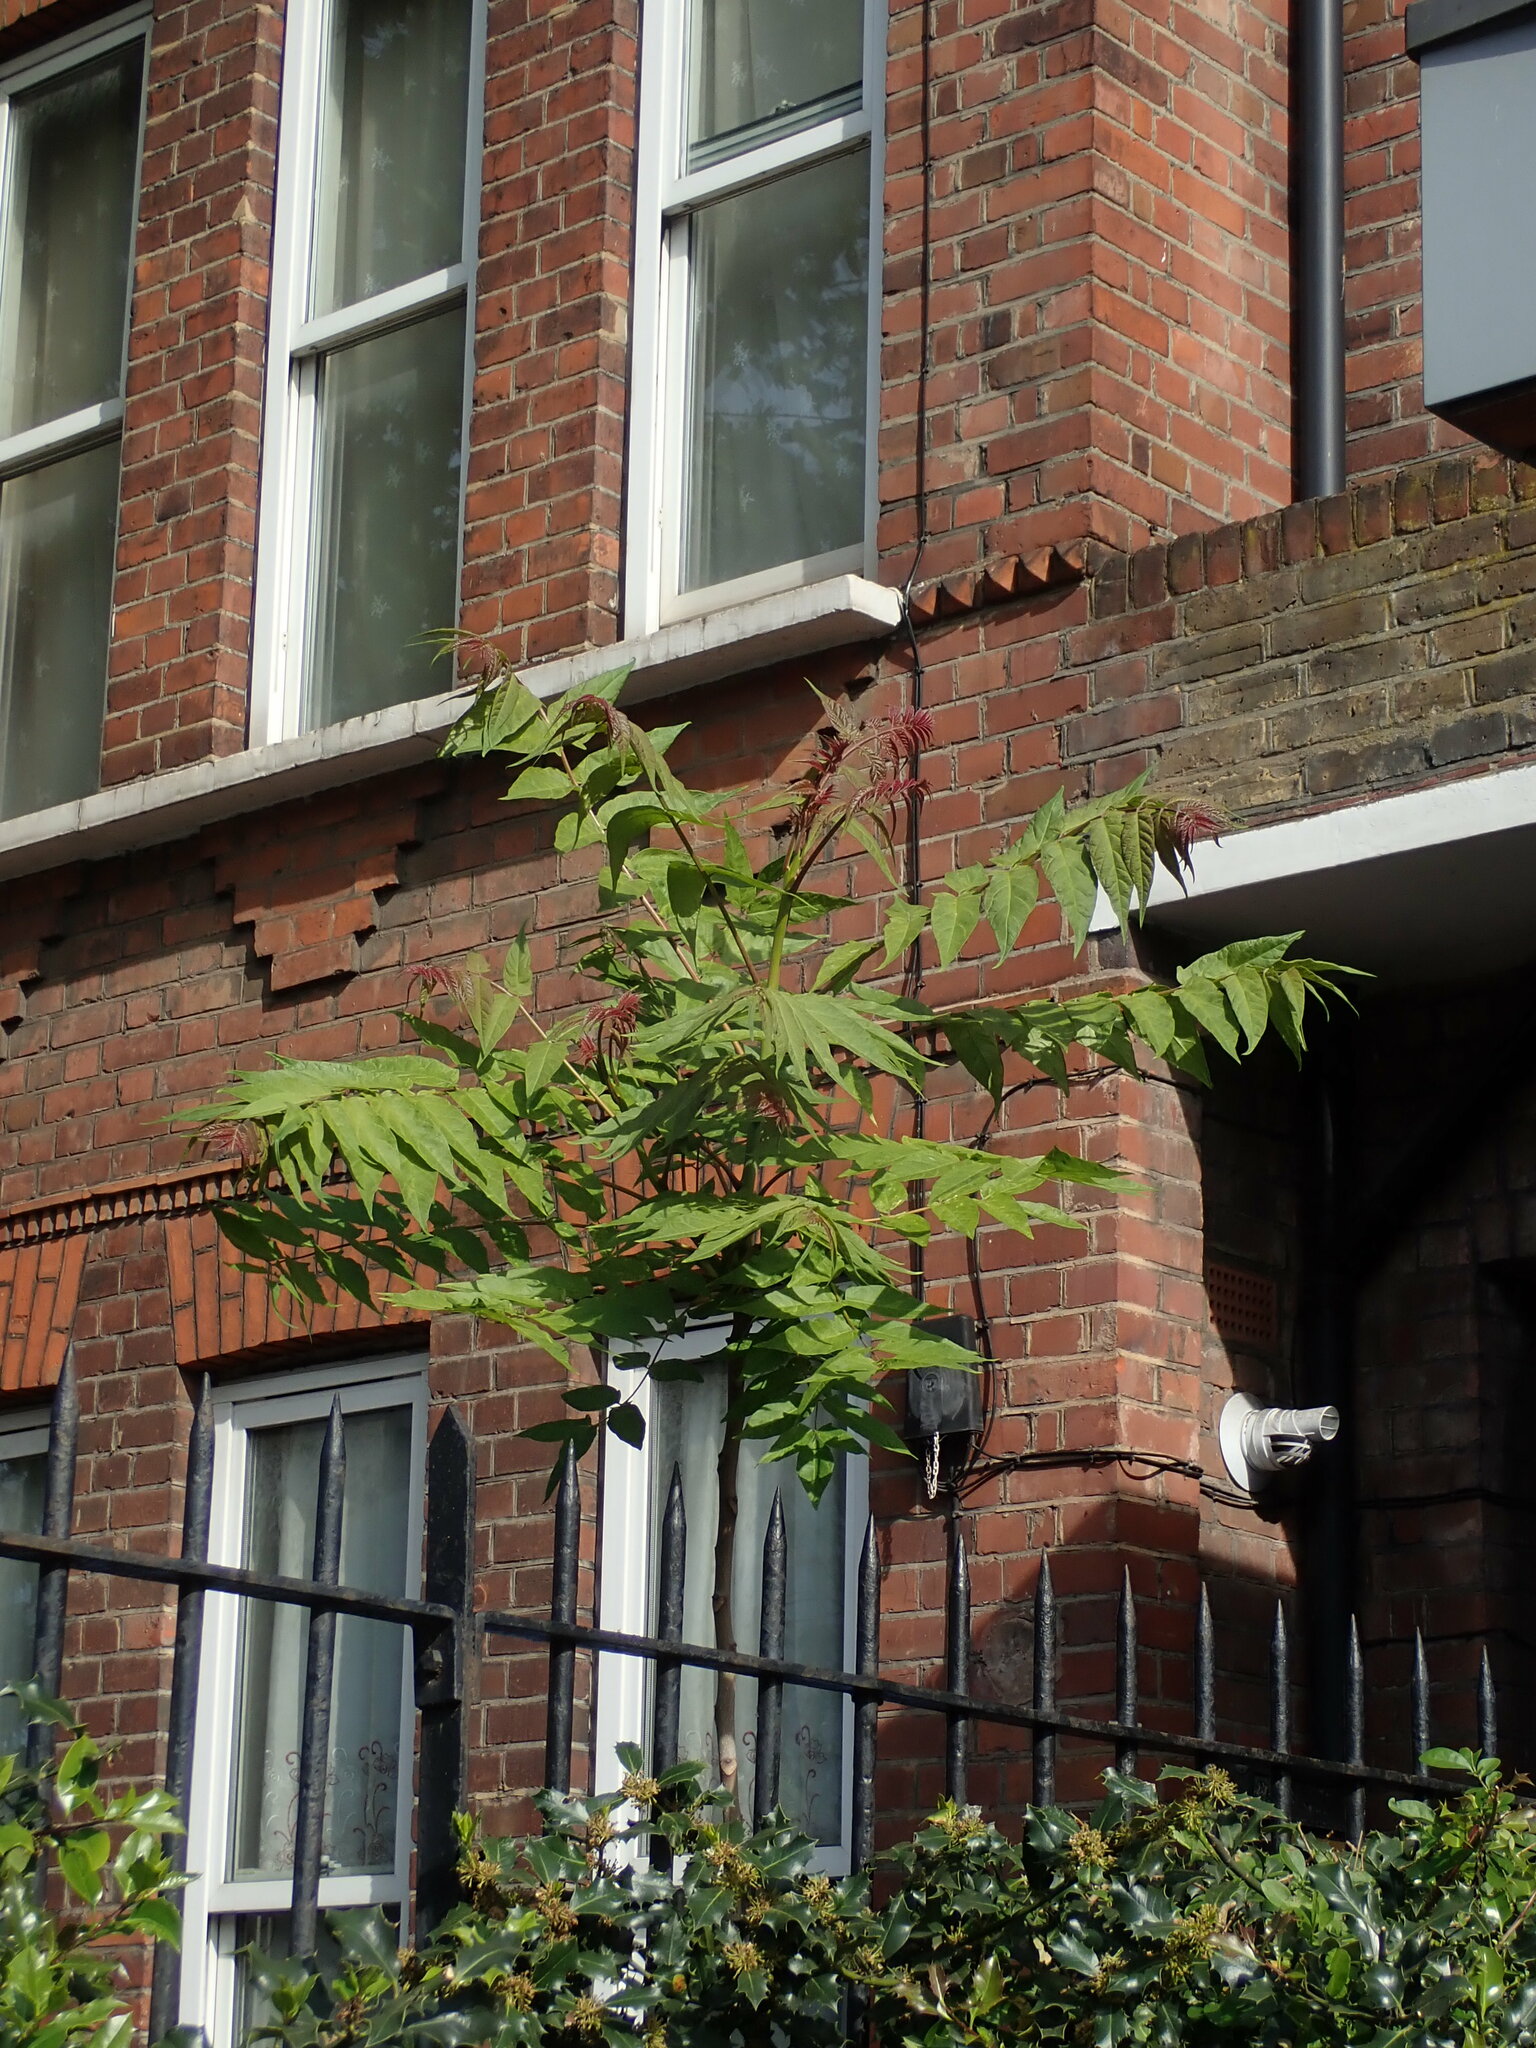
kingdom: Plantae
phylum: Tracheophyta
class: Magnoliopsida
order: Sapindales
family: Simaroubaceae
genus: Ailanthus
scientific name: Ailanthus altissima
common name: Tree-of-heaven
